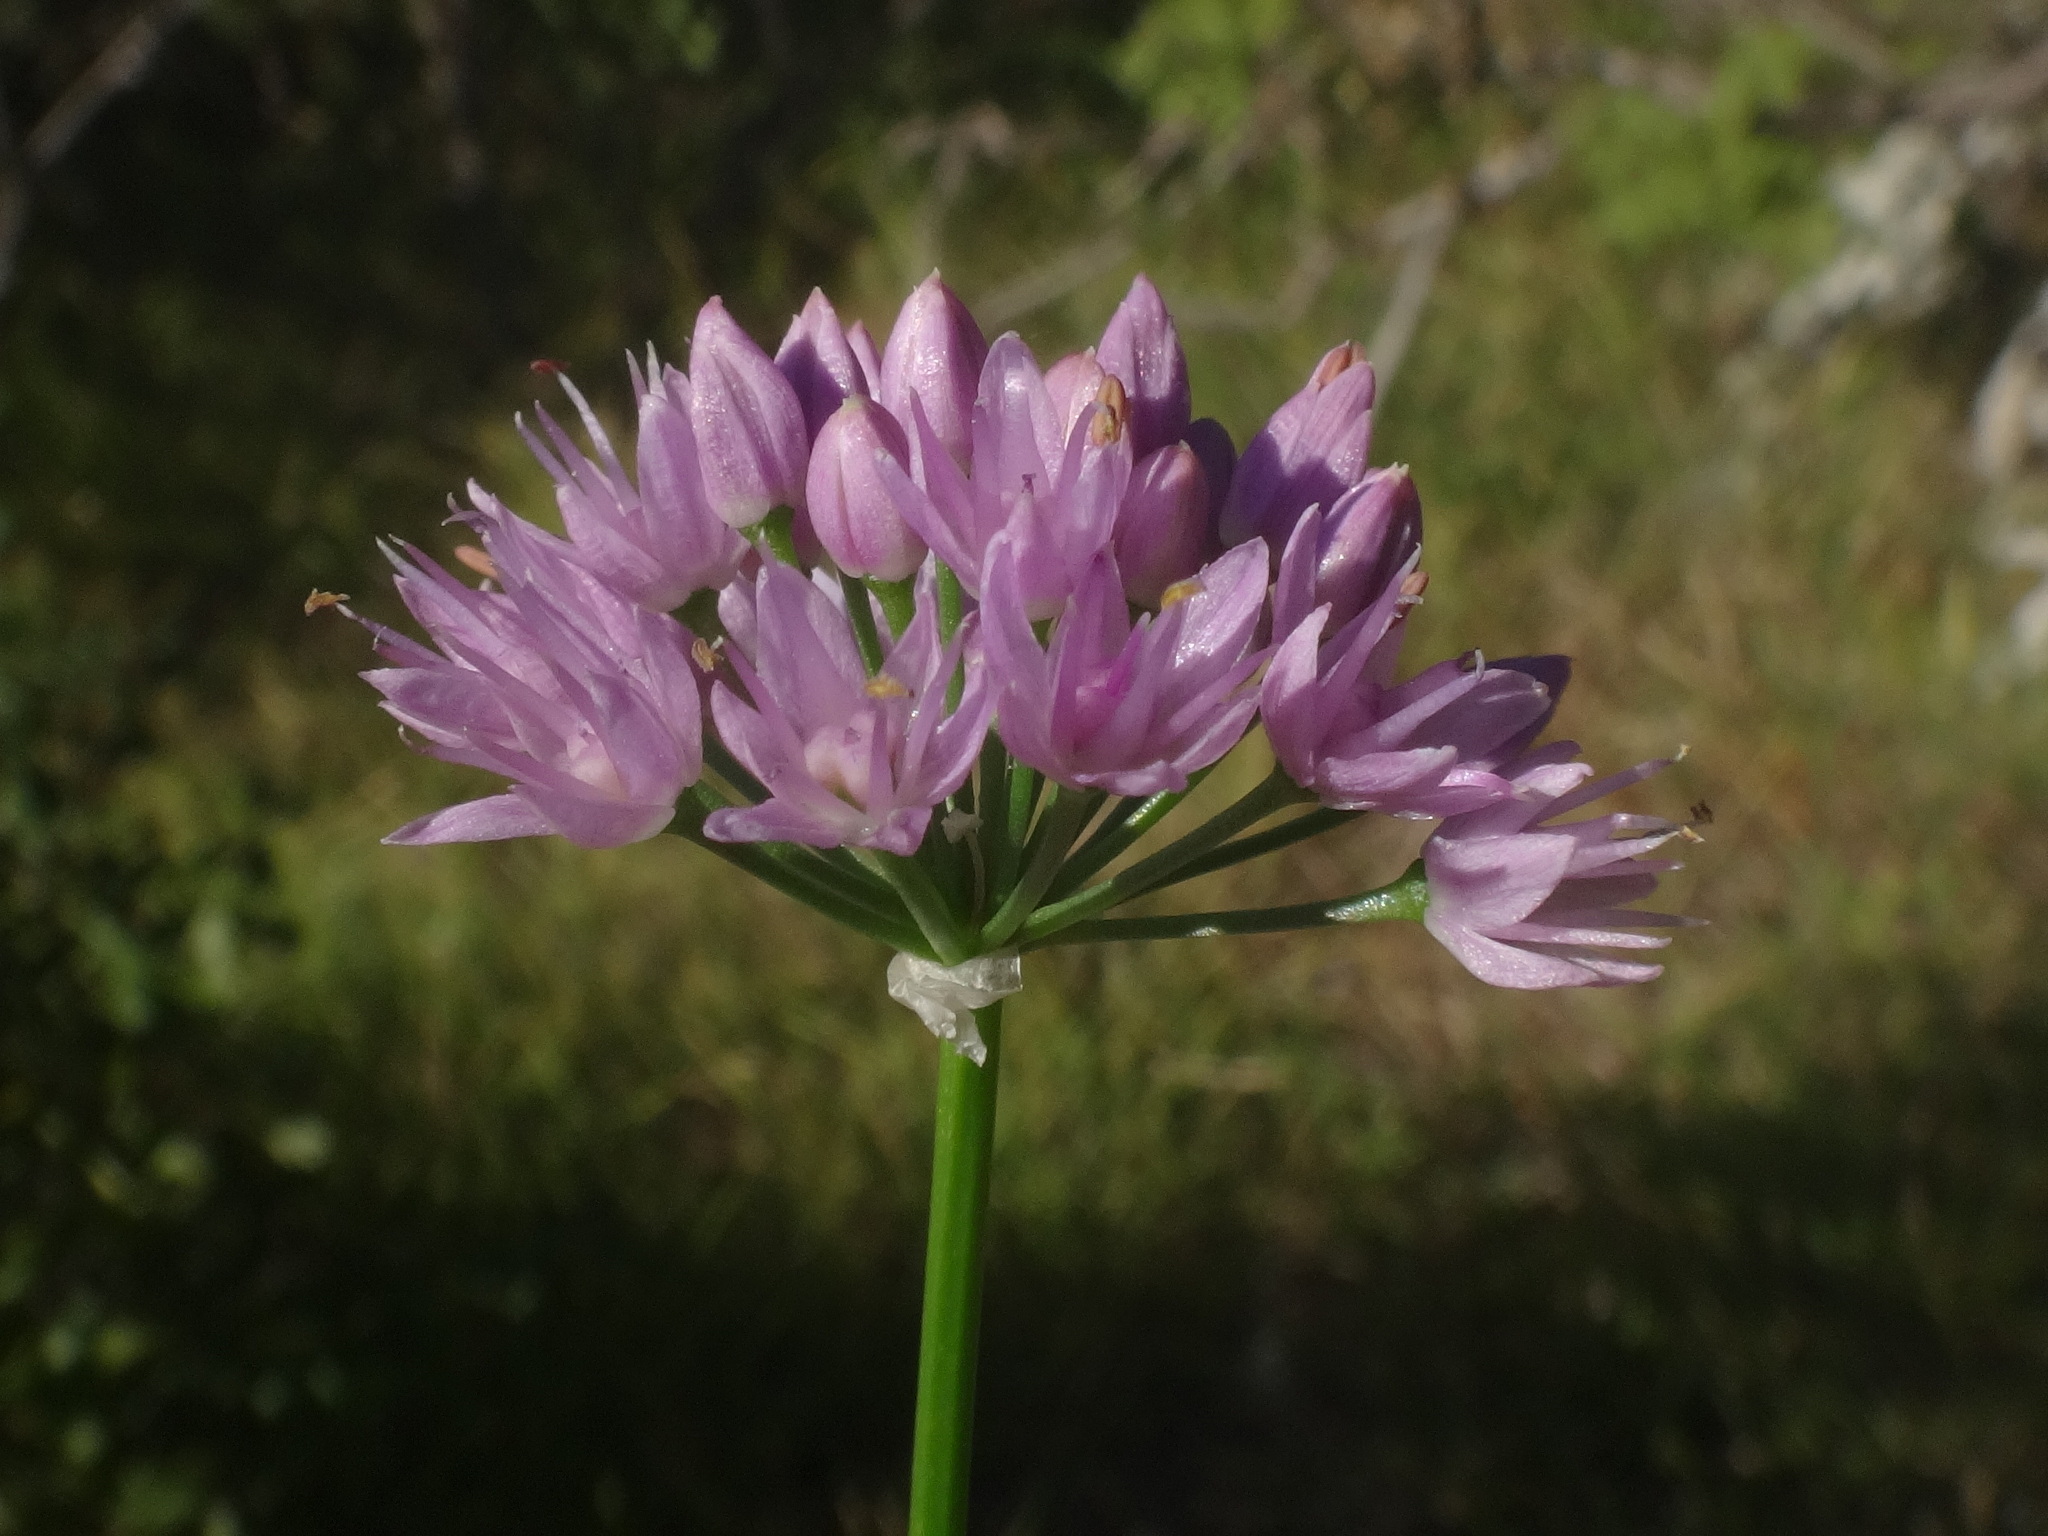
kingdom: Plantae
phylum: Tracheophyta
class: Liliopsida
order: Asparagales
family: Amaryllidaceae
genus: Allium
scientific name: Allium lusitanicum
